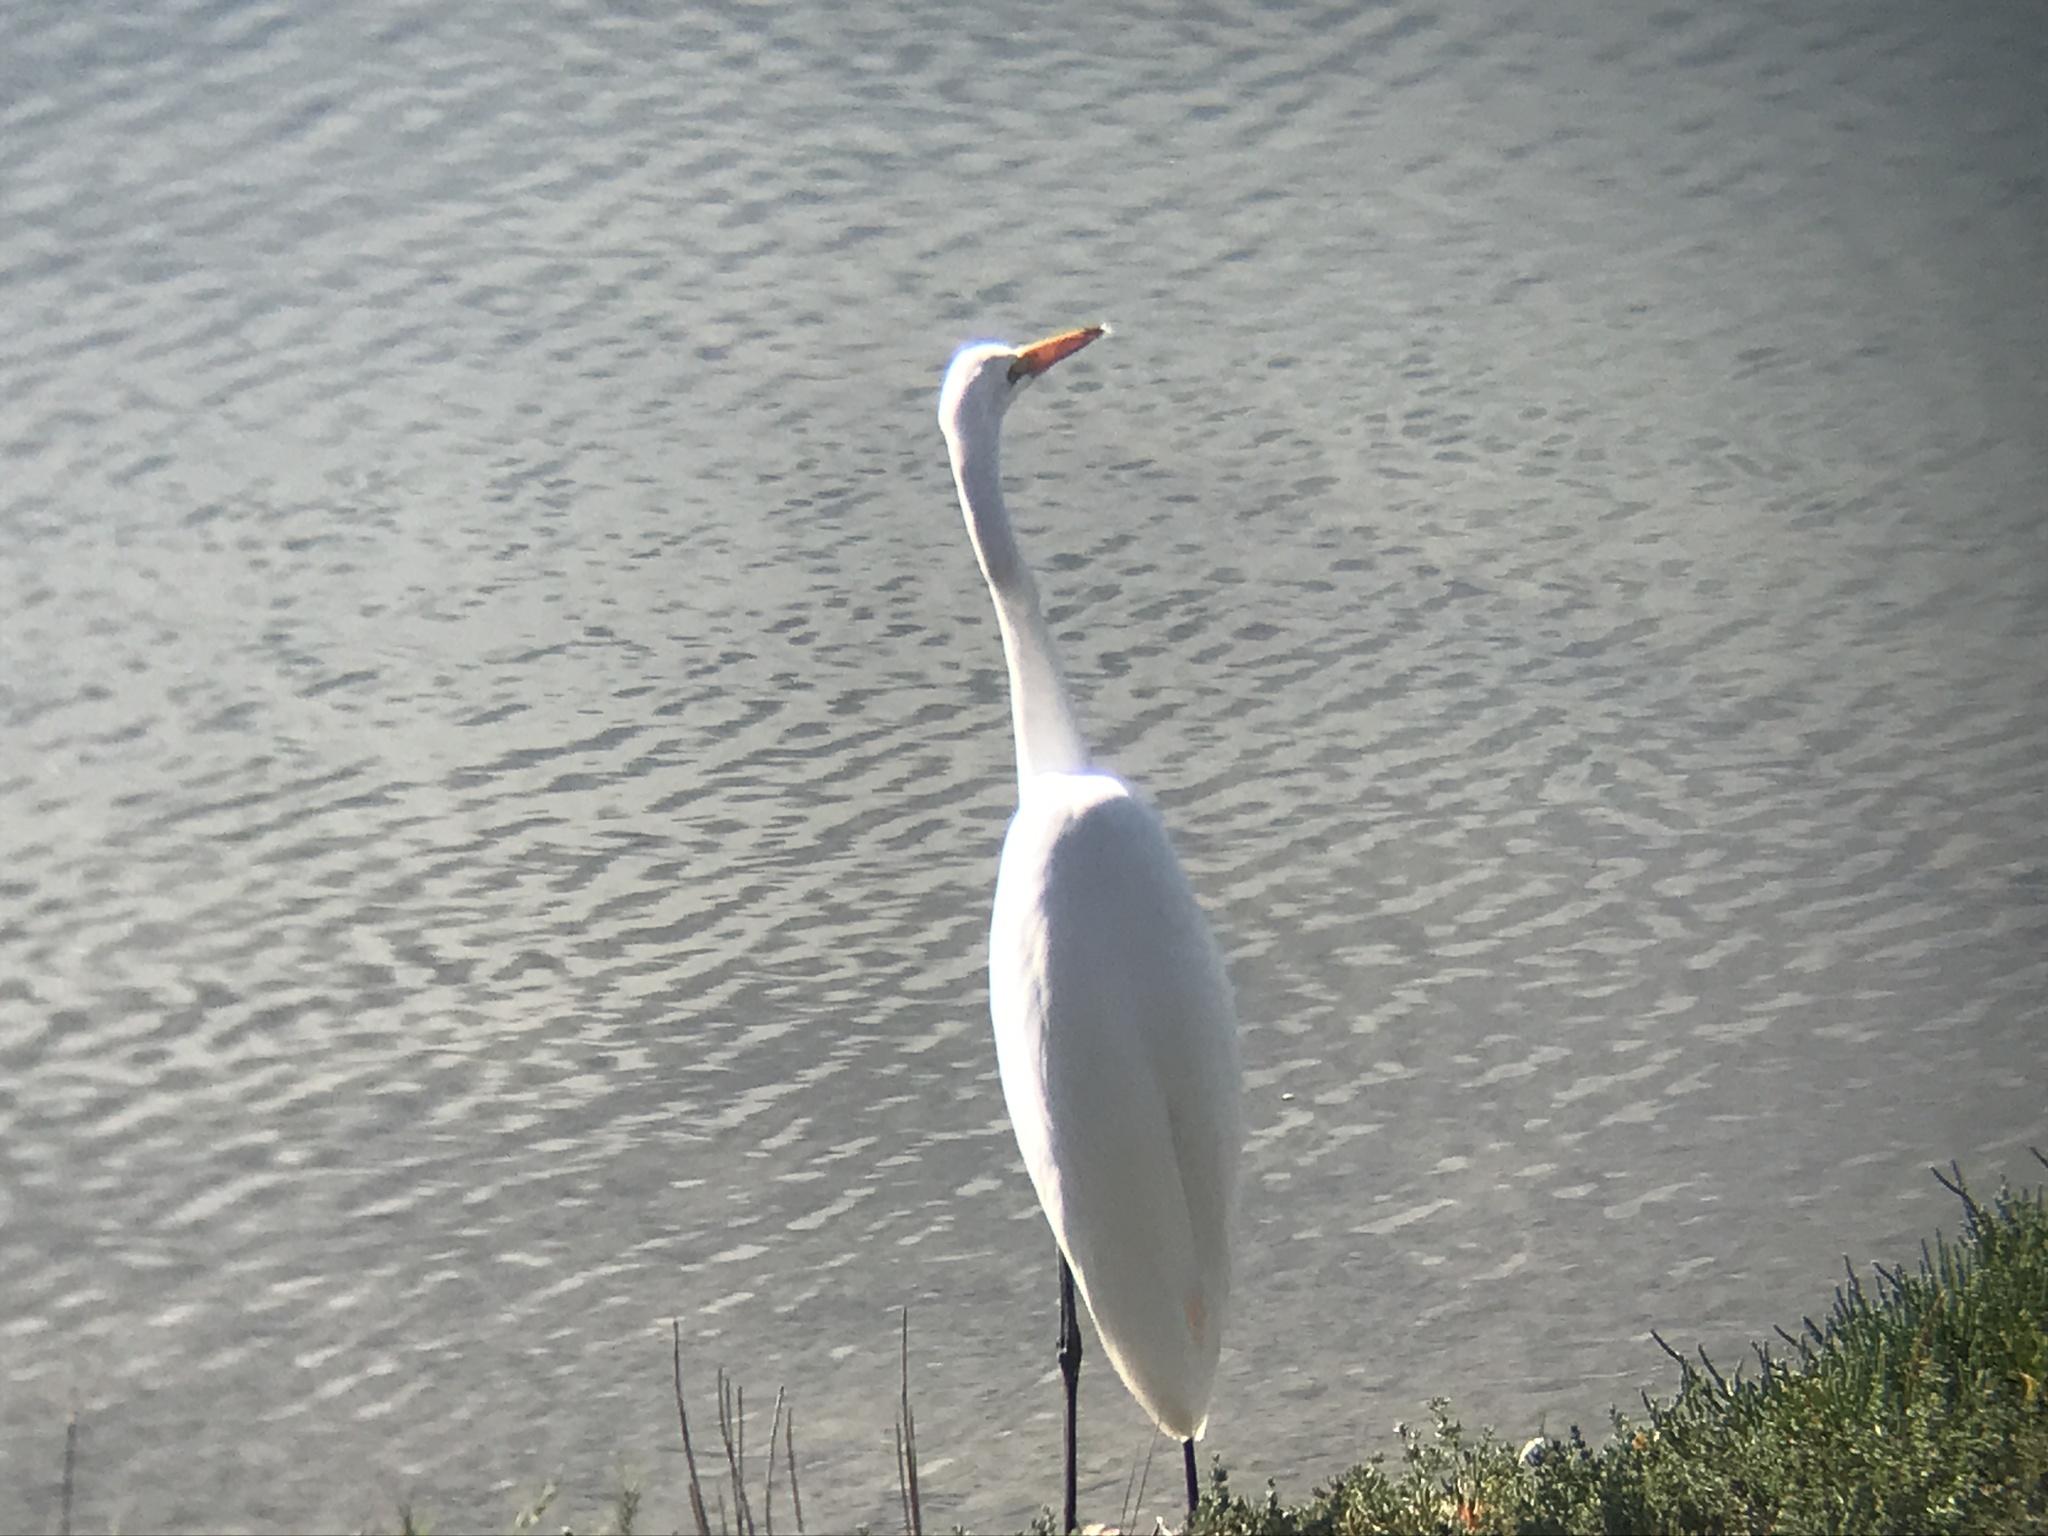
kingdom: Animalia
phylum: Chordata
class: Aves
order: Pelecaniformes
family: Ardeidae
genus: Ardea
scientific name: Ardea alba
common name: Great egret
